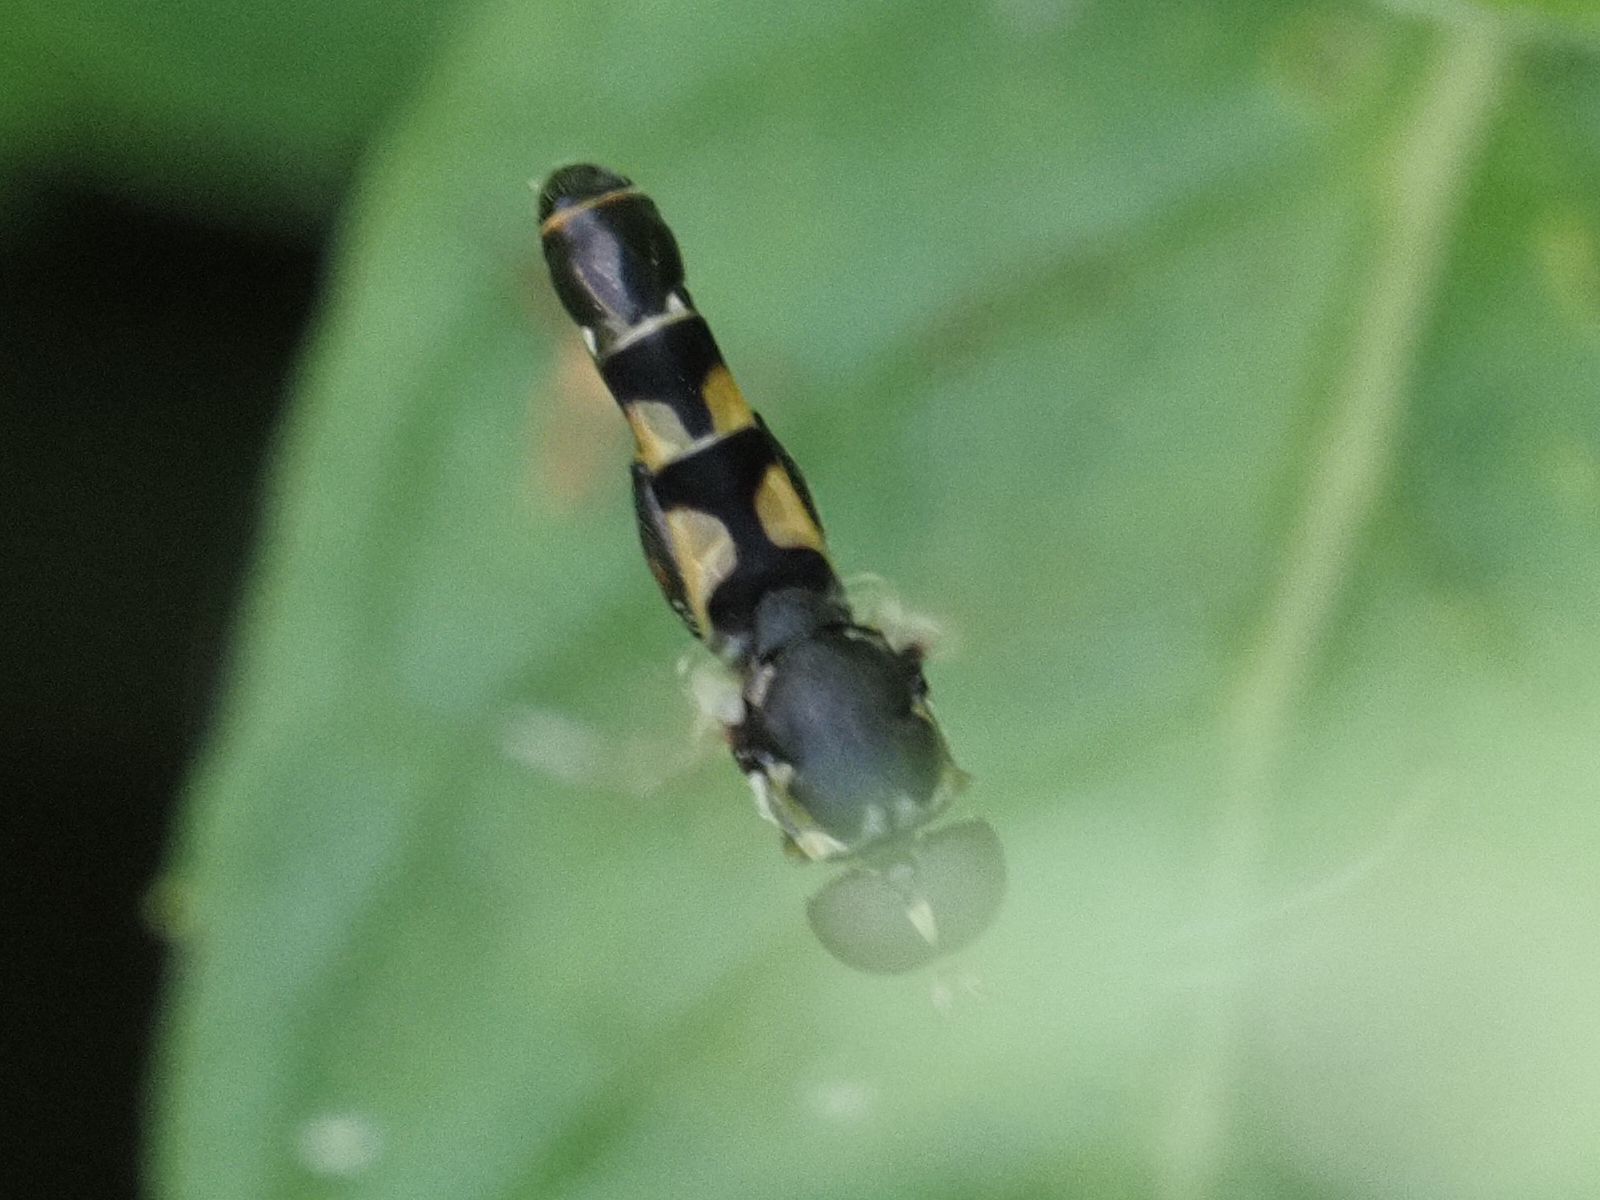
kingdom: Animalia
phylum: Arthropoda
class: Insecta
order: Diptera
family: Syrphidae
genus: Syritta
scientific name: Syritta pipiens
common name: Hover fly
